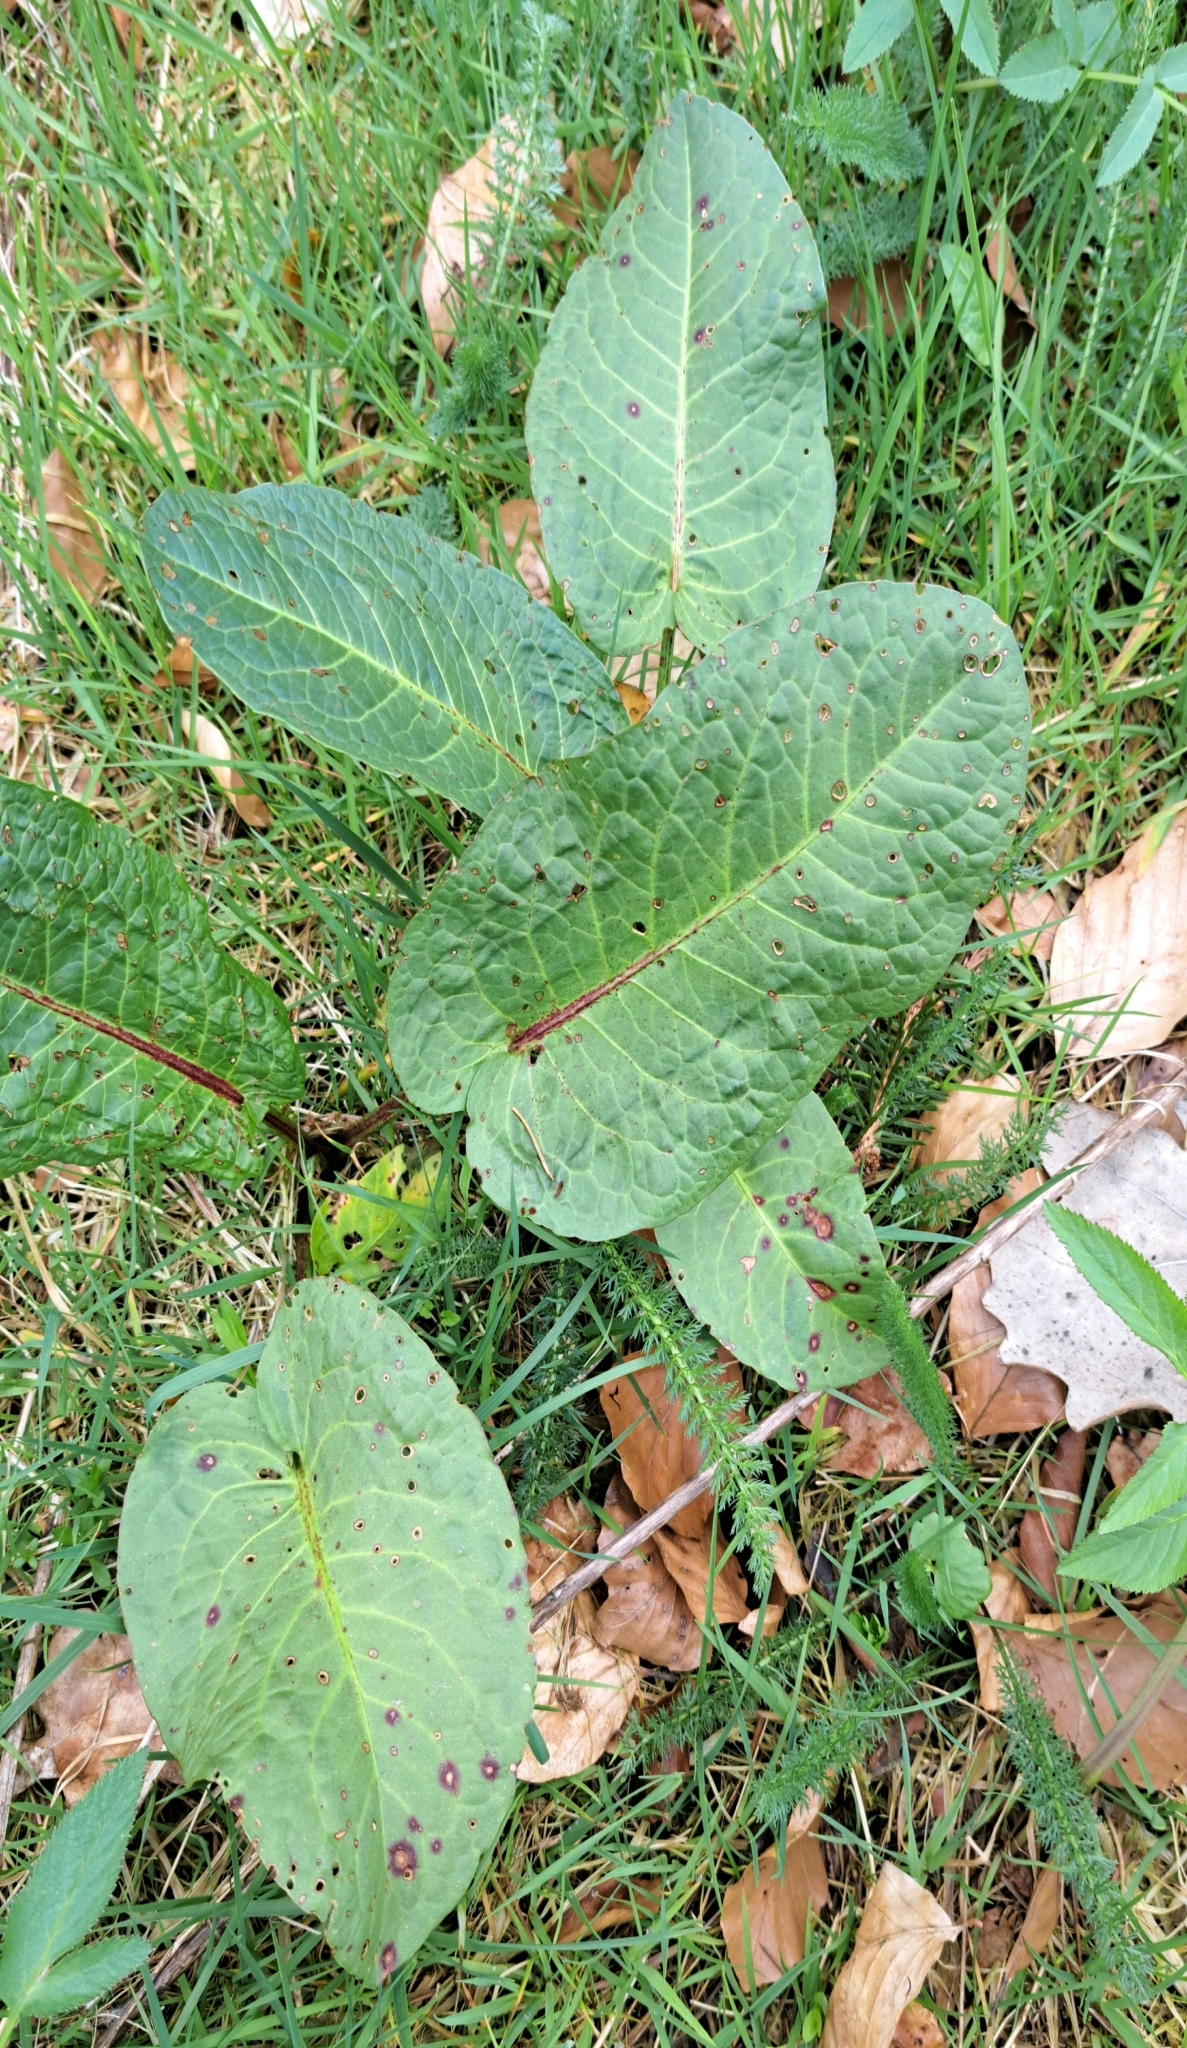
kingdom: Plantae
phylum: Tracheophyta
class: Magnoliopsida
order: Caryophyllales
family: Polygonaceae
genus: Rumex
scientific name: Rumex obtusifolius
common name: Bitter dock
